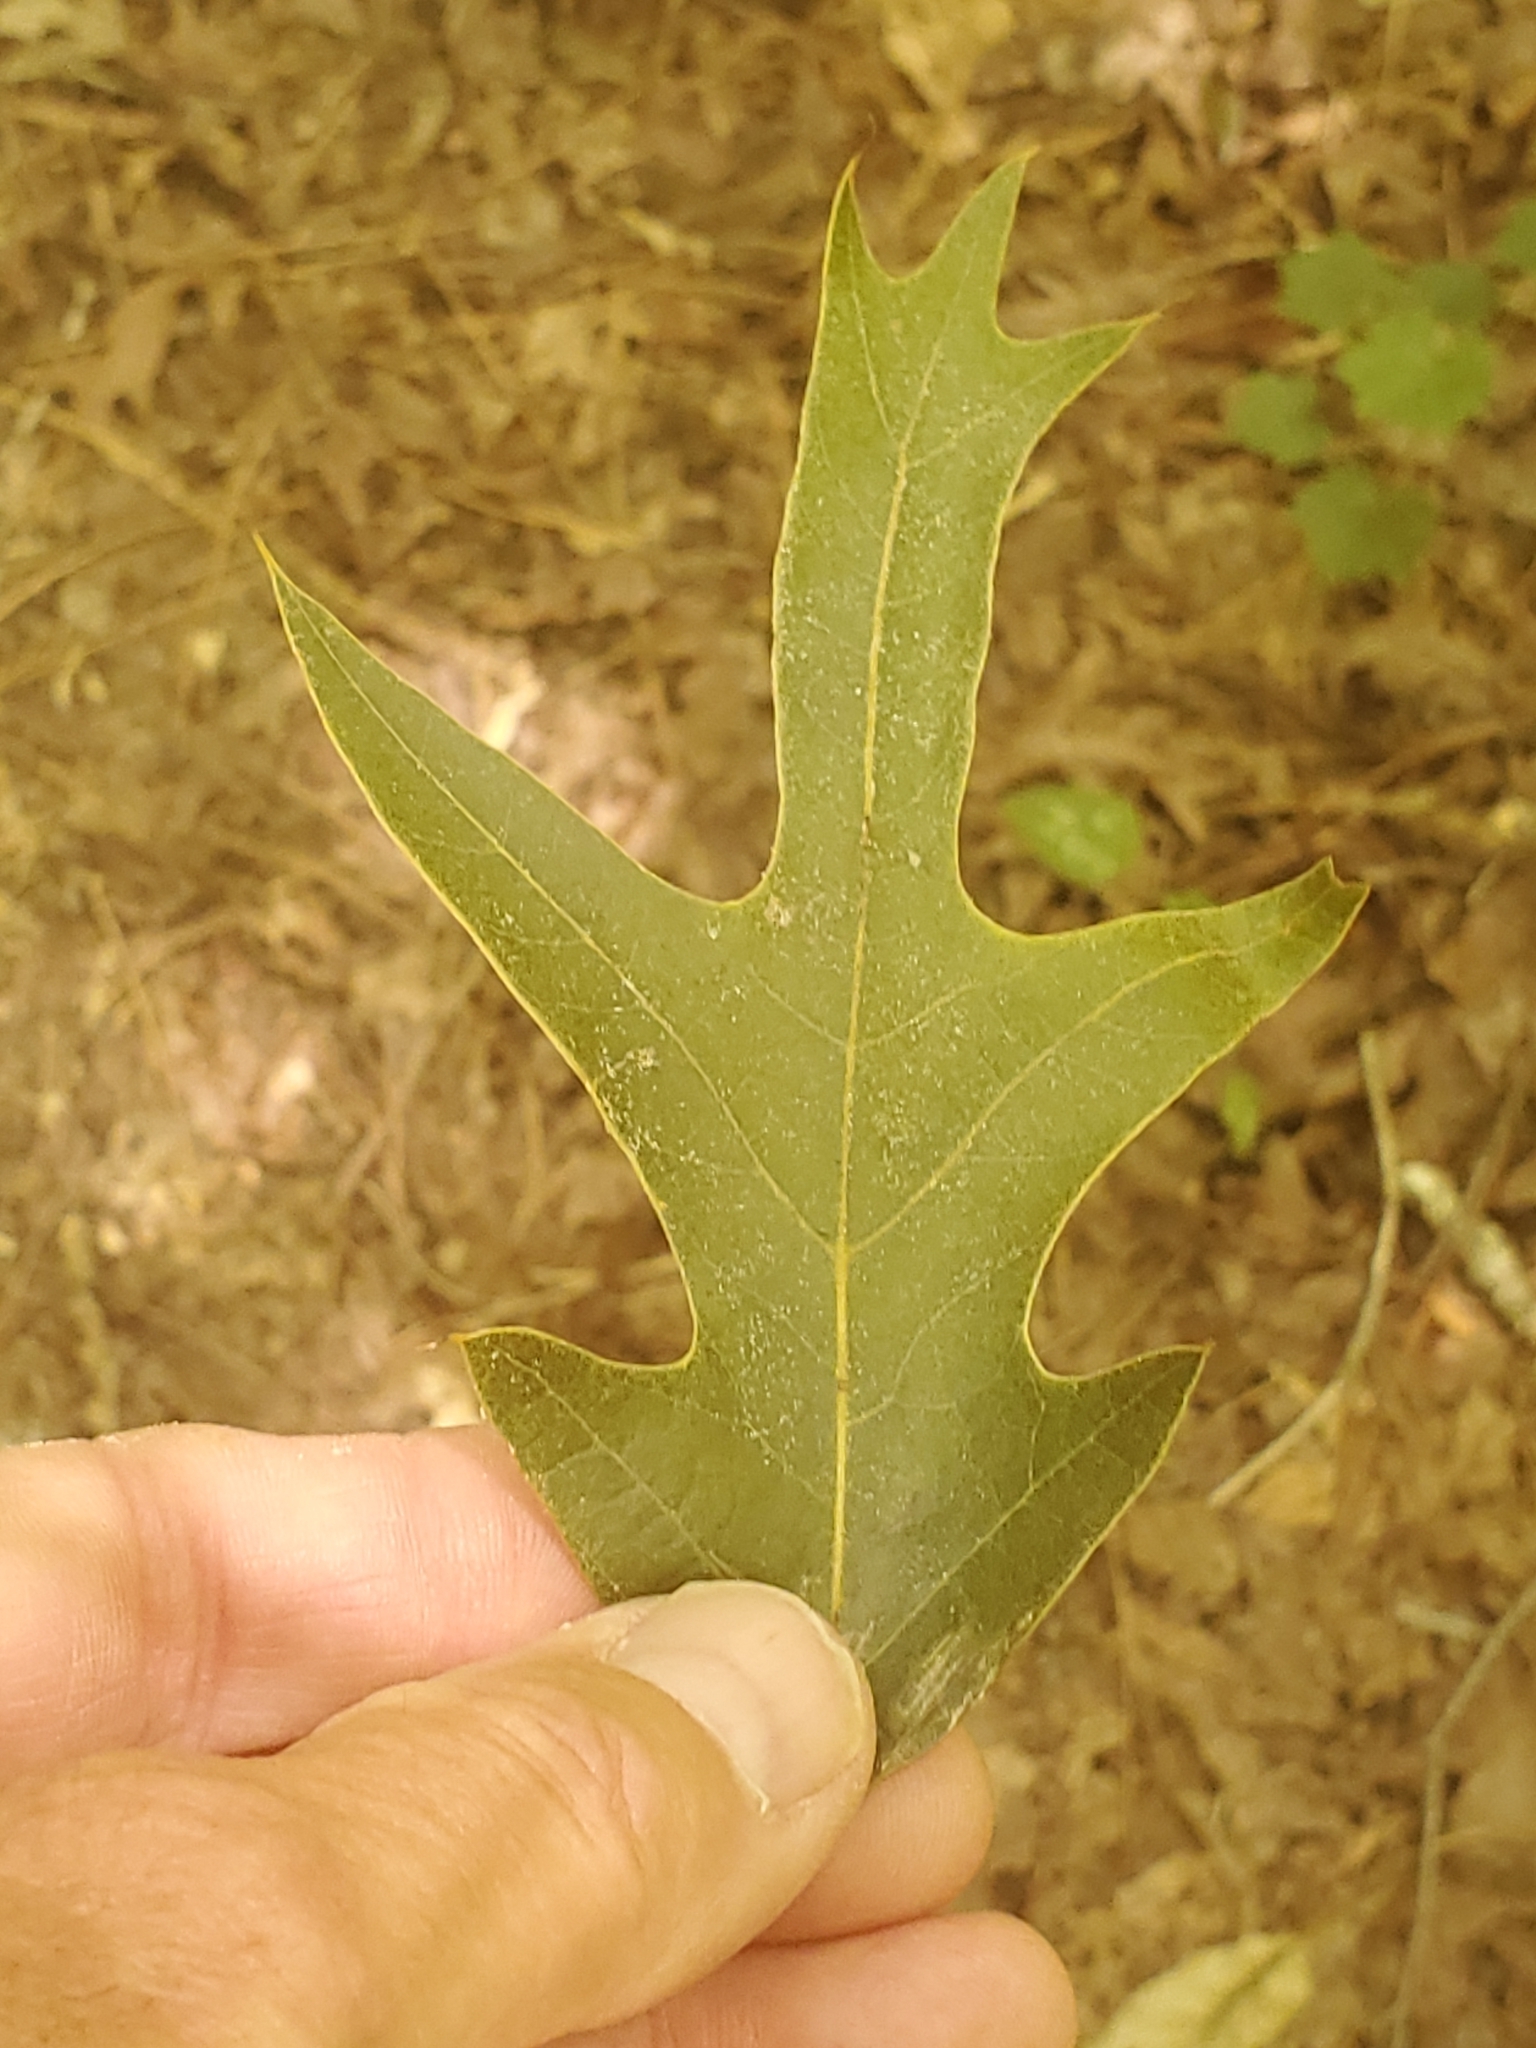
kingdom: Plantae
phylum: Tracheophyta
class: Magnoliopsida
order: Fagales
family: Fagaceae
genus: Quercus
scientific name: Quercus falcata
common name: Southern red oak
